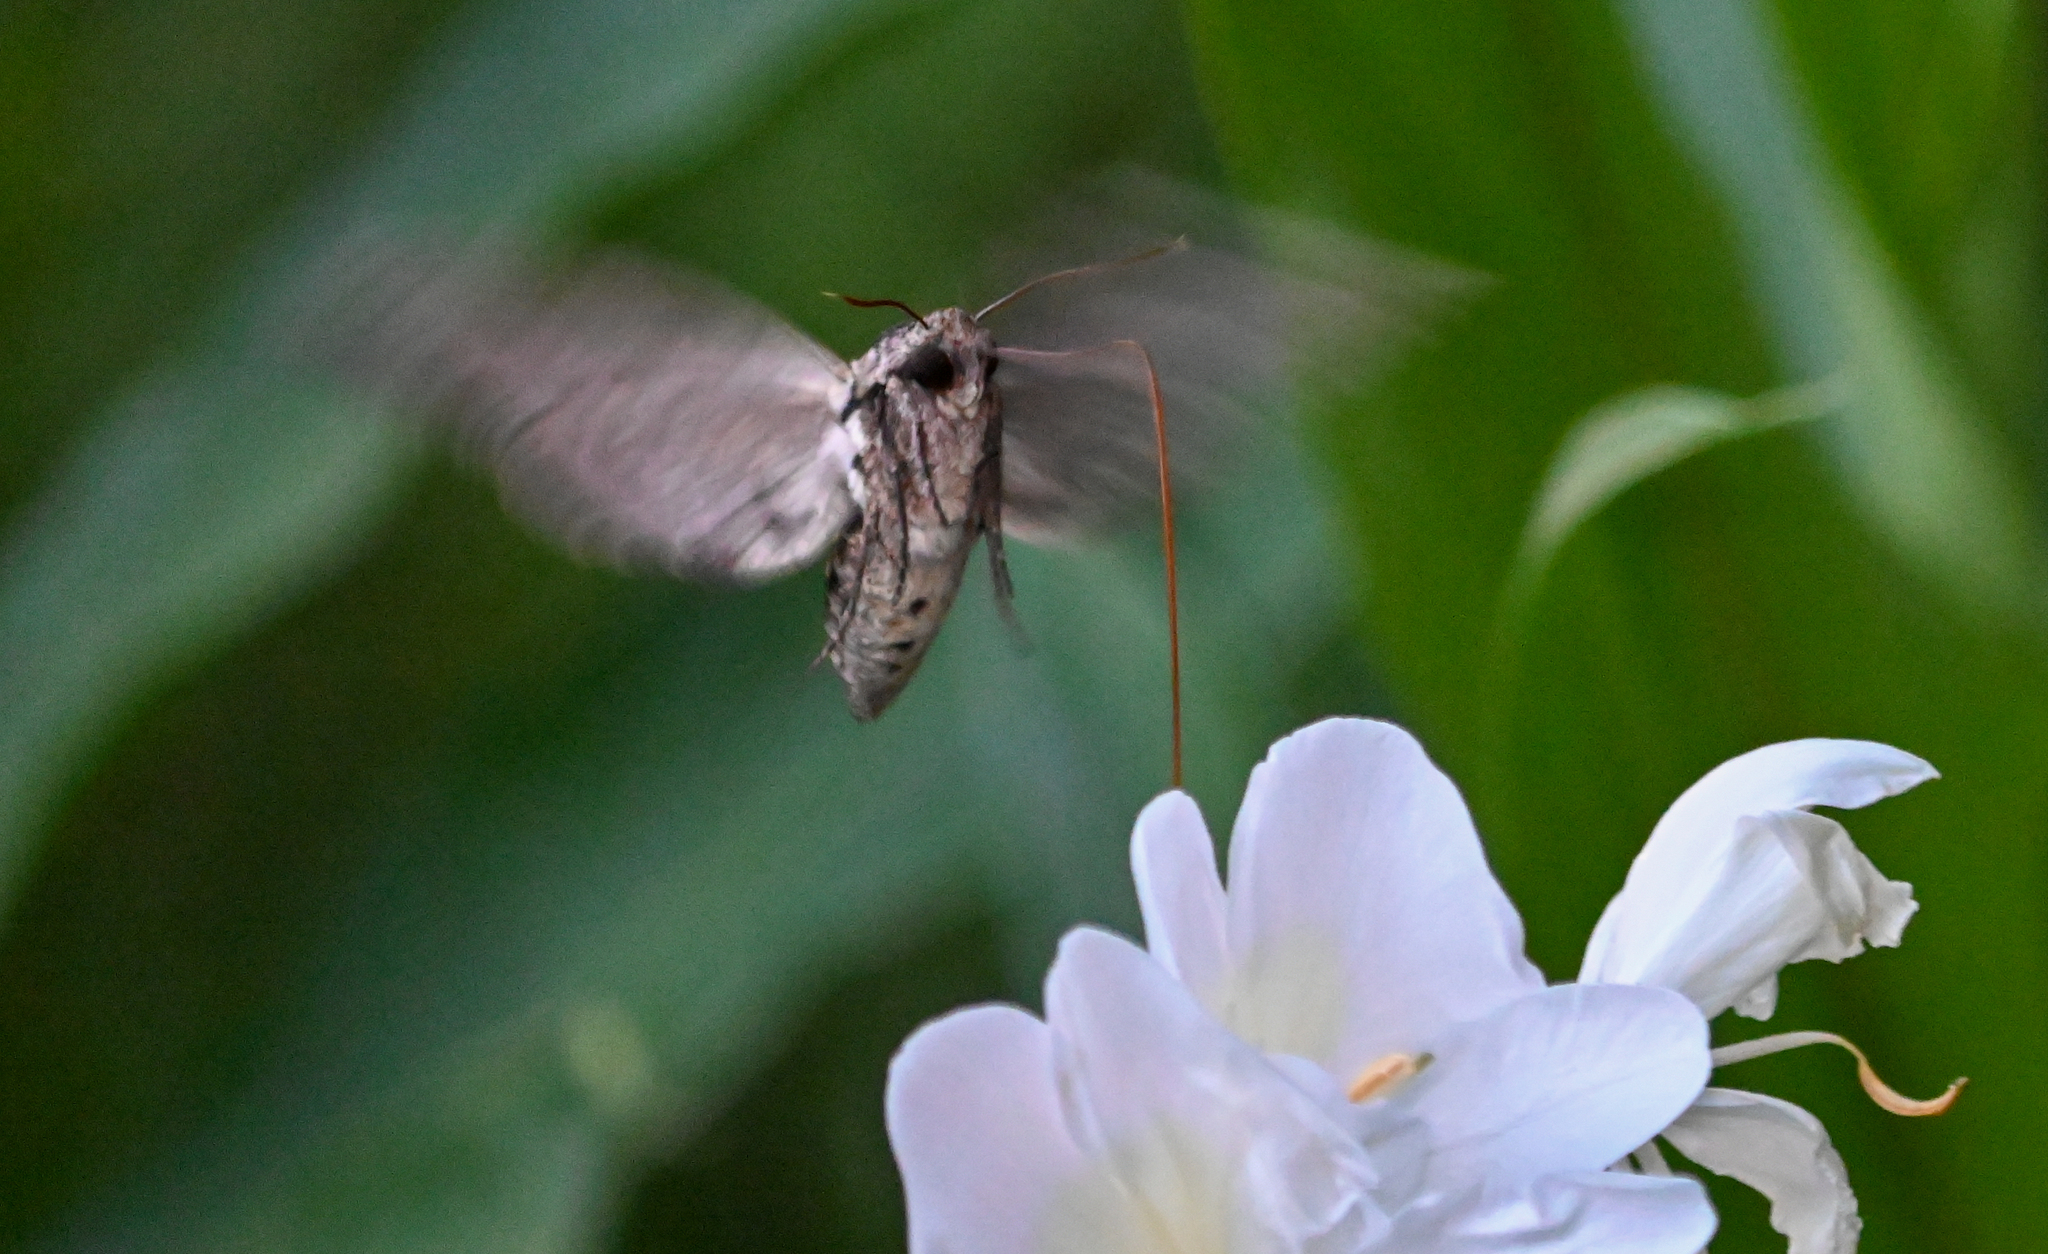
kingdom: Animalia
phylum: Arthropoda
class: Insecta
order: Lepidoptera
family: Sphingidae
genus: Manduca
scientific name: Manduca sexta
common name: Carolina sphinx
